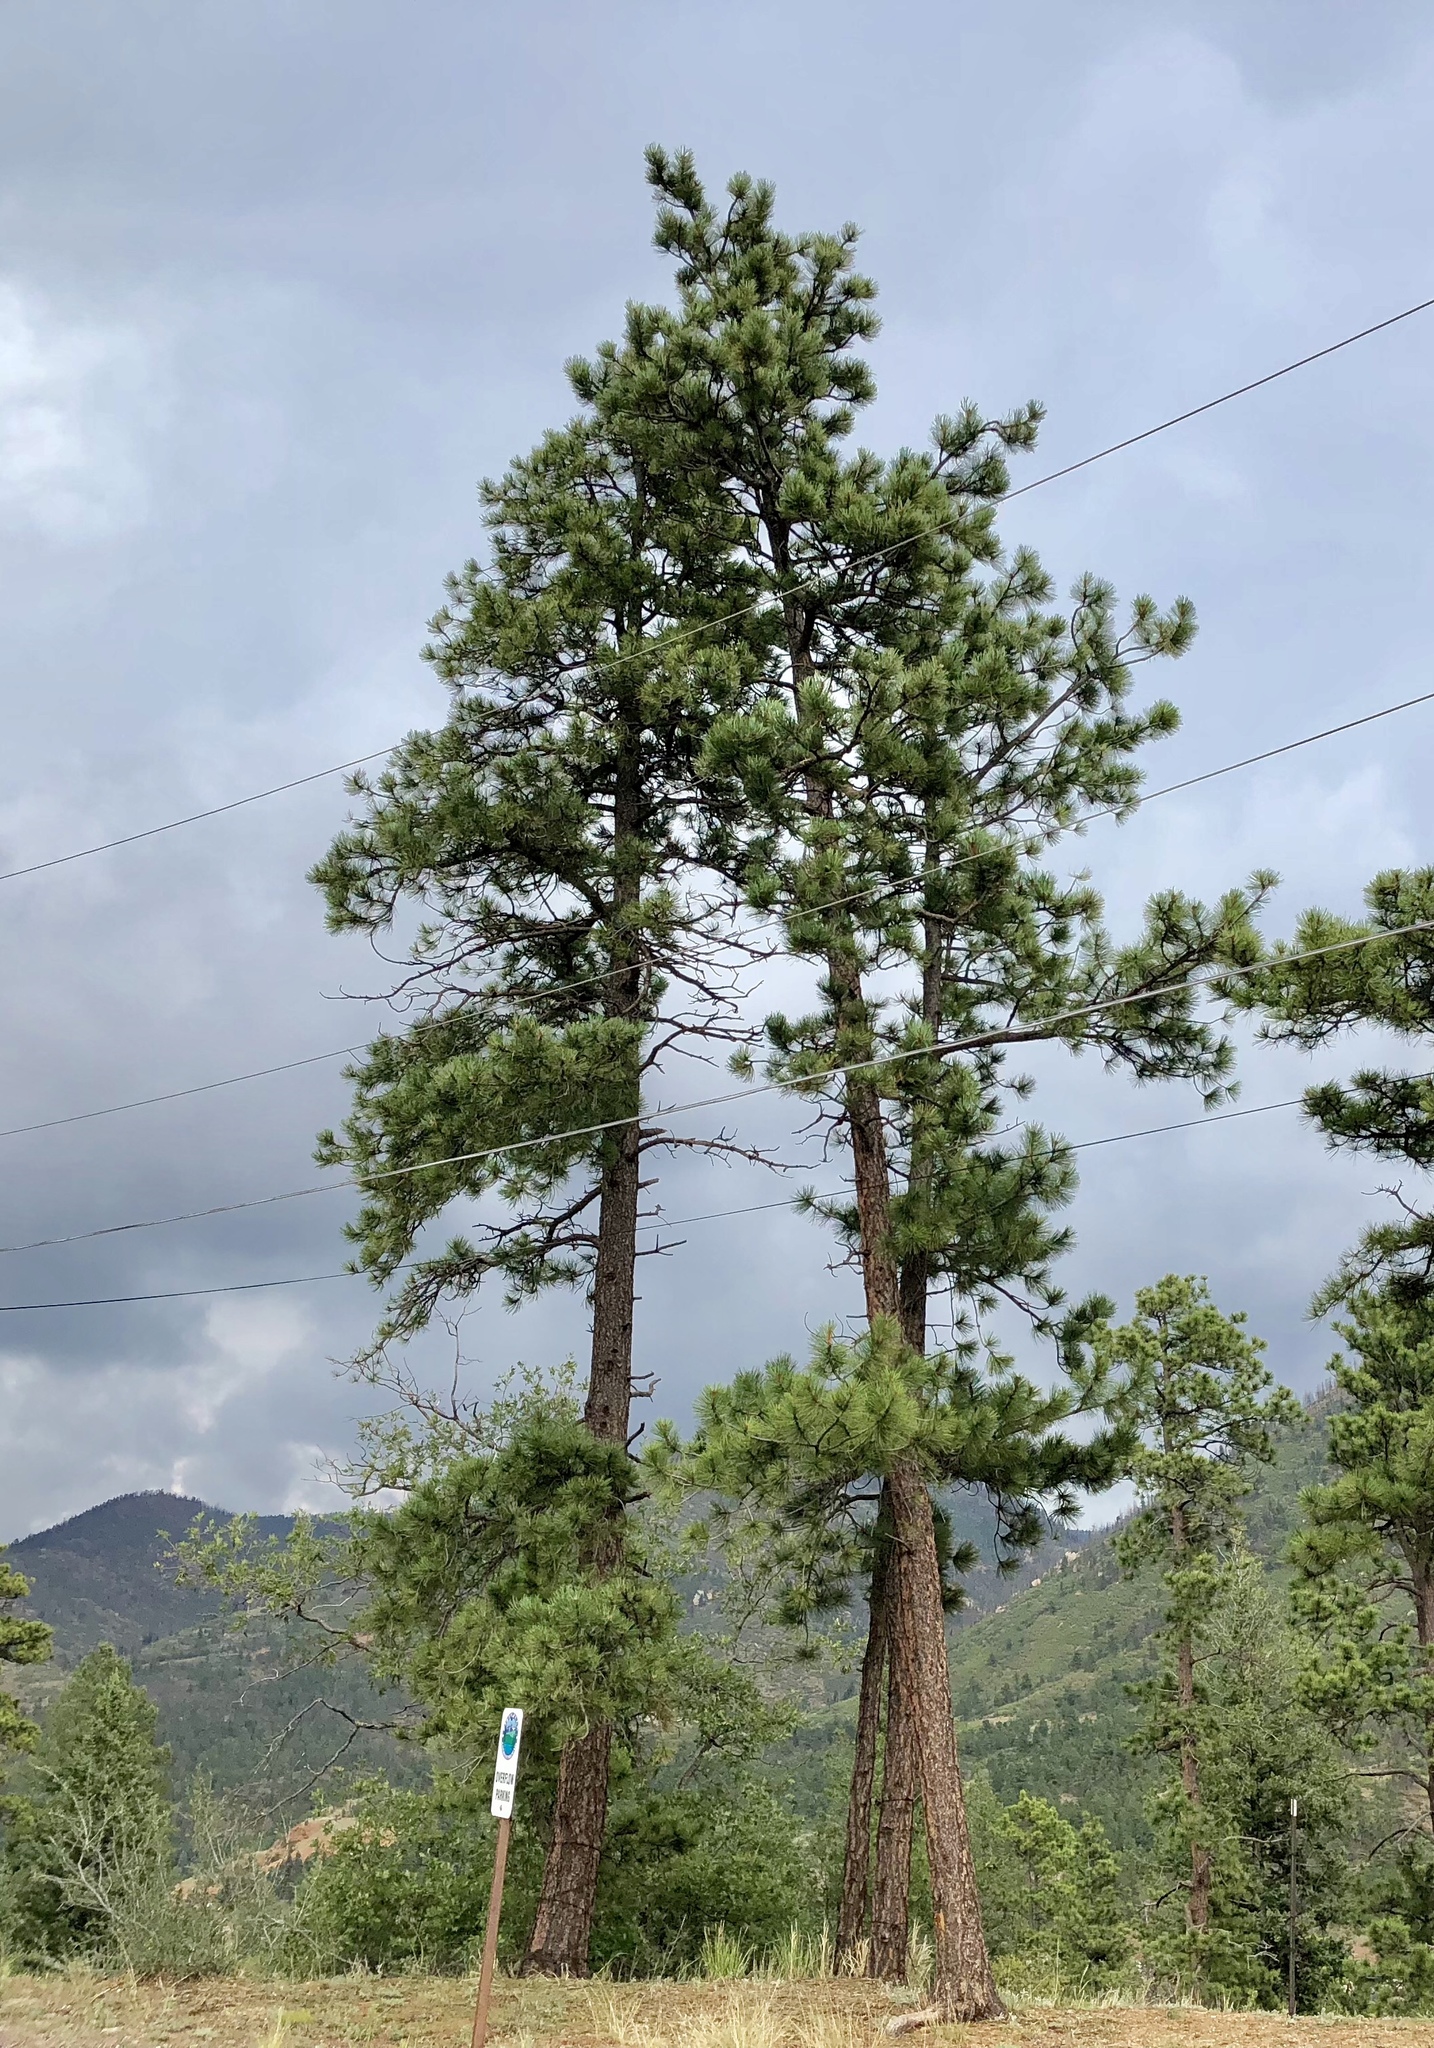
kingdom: Plantae
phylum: Tracheophyta
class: Pinopsida
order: Pinales
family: Pinaceae
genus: Pinus
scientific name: Pinus ponderosa
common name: Western yellow-pine
